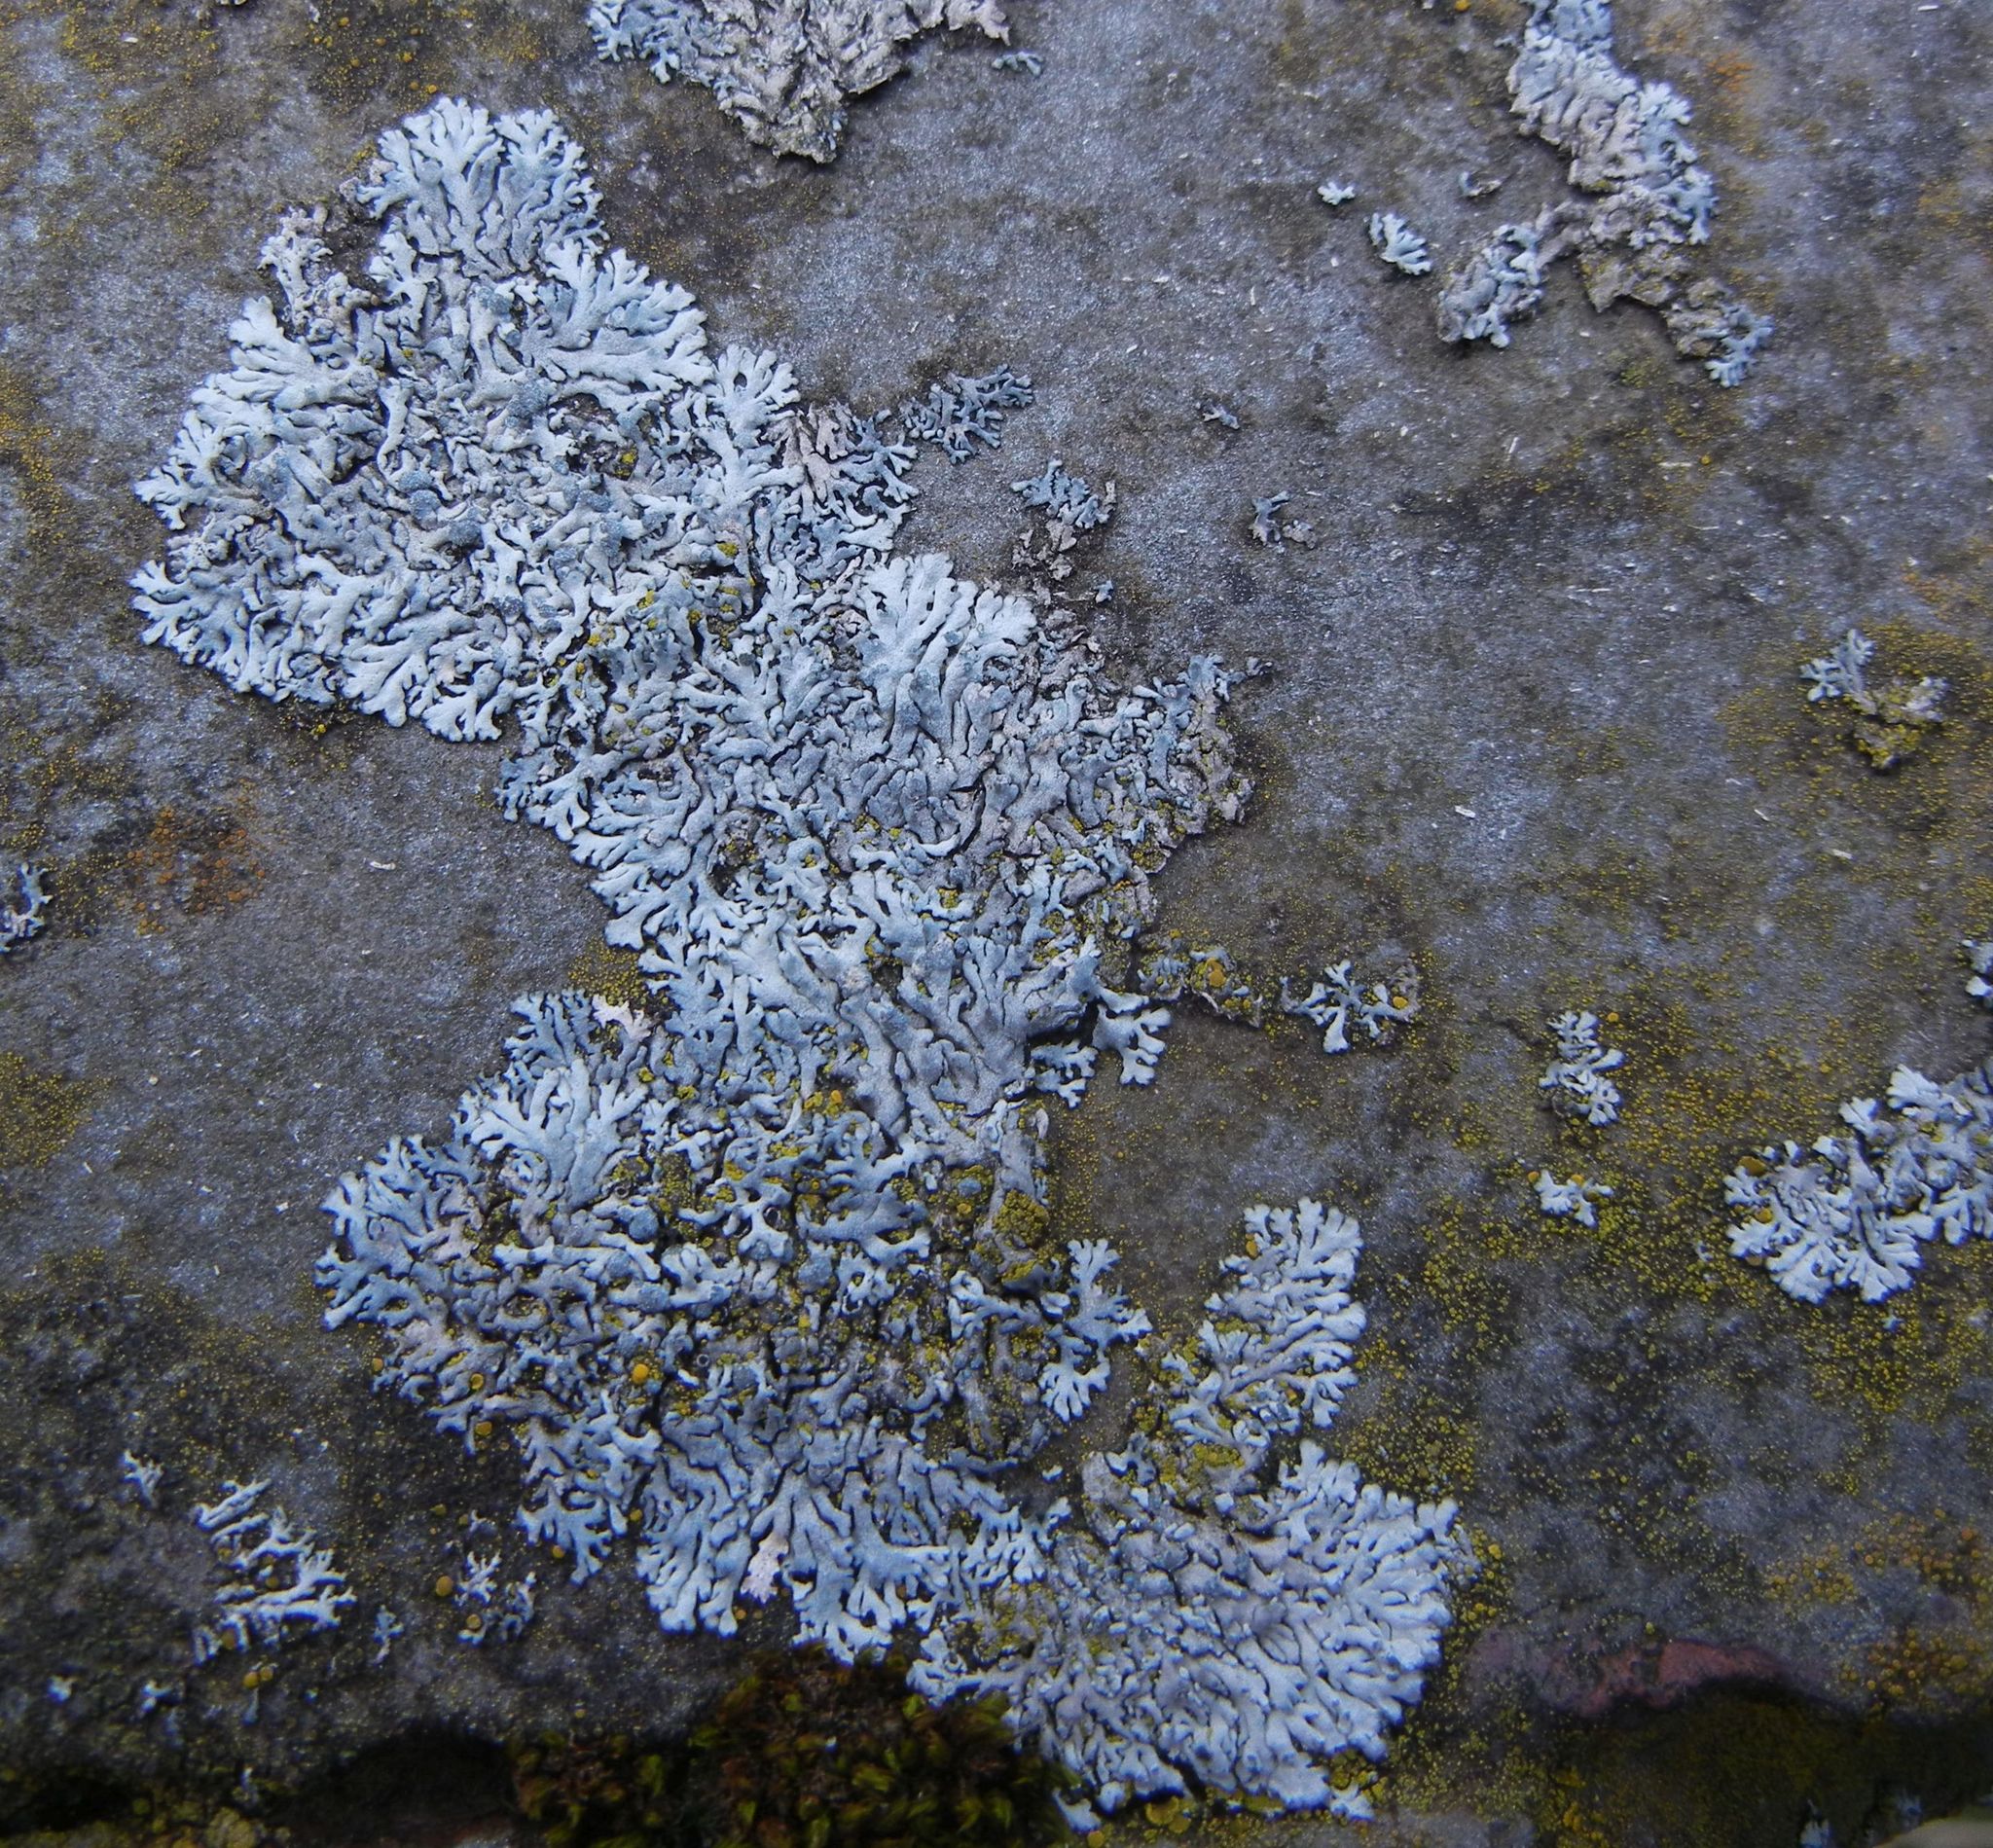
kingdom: Fungi
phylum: Ascomycota
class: Lecanoromycetes
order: Caliciales
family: Physciaceae
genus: Physcia
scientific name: Physcia caesia
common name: Blue-gray rosette lichen
